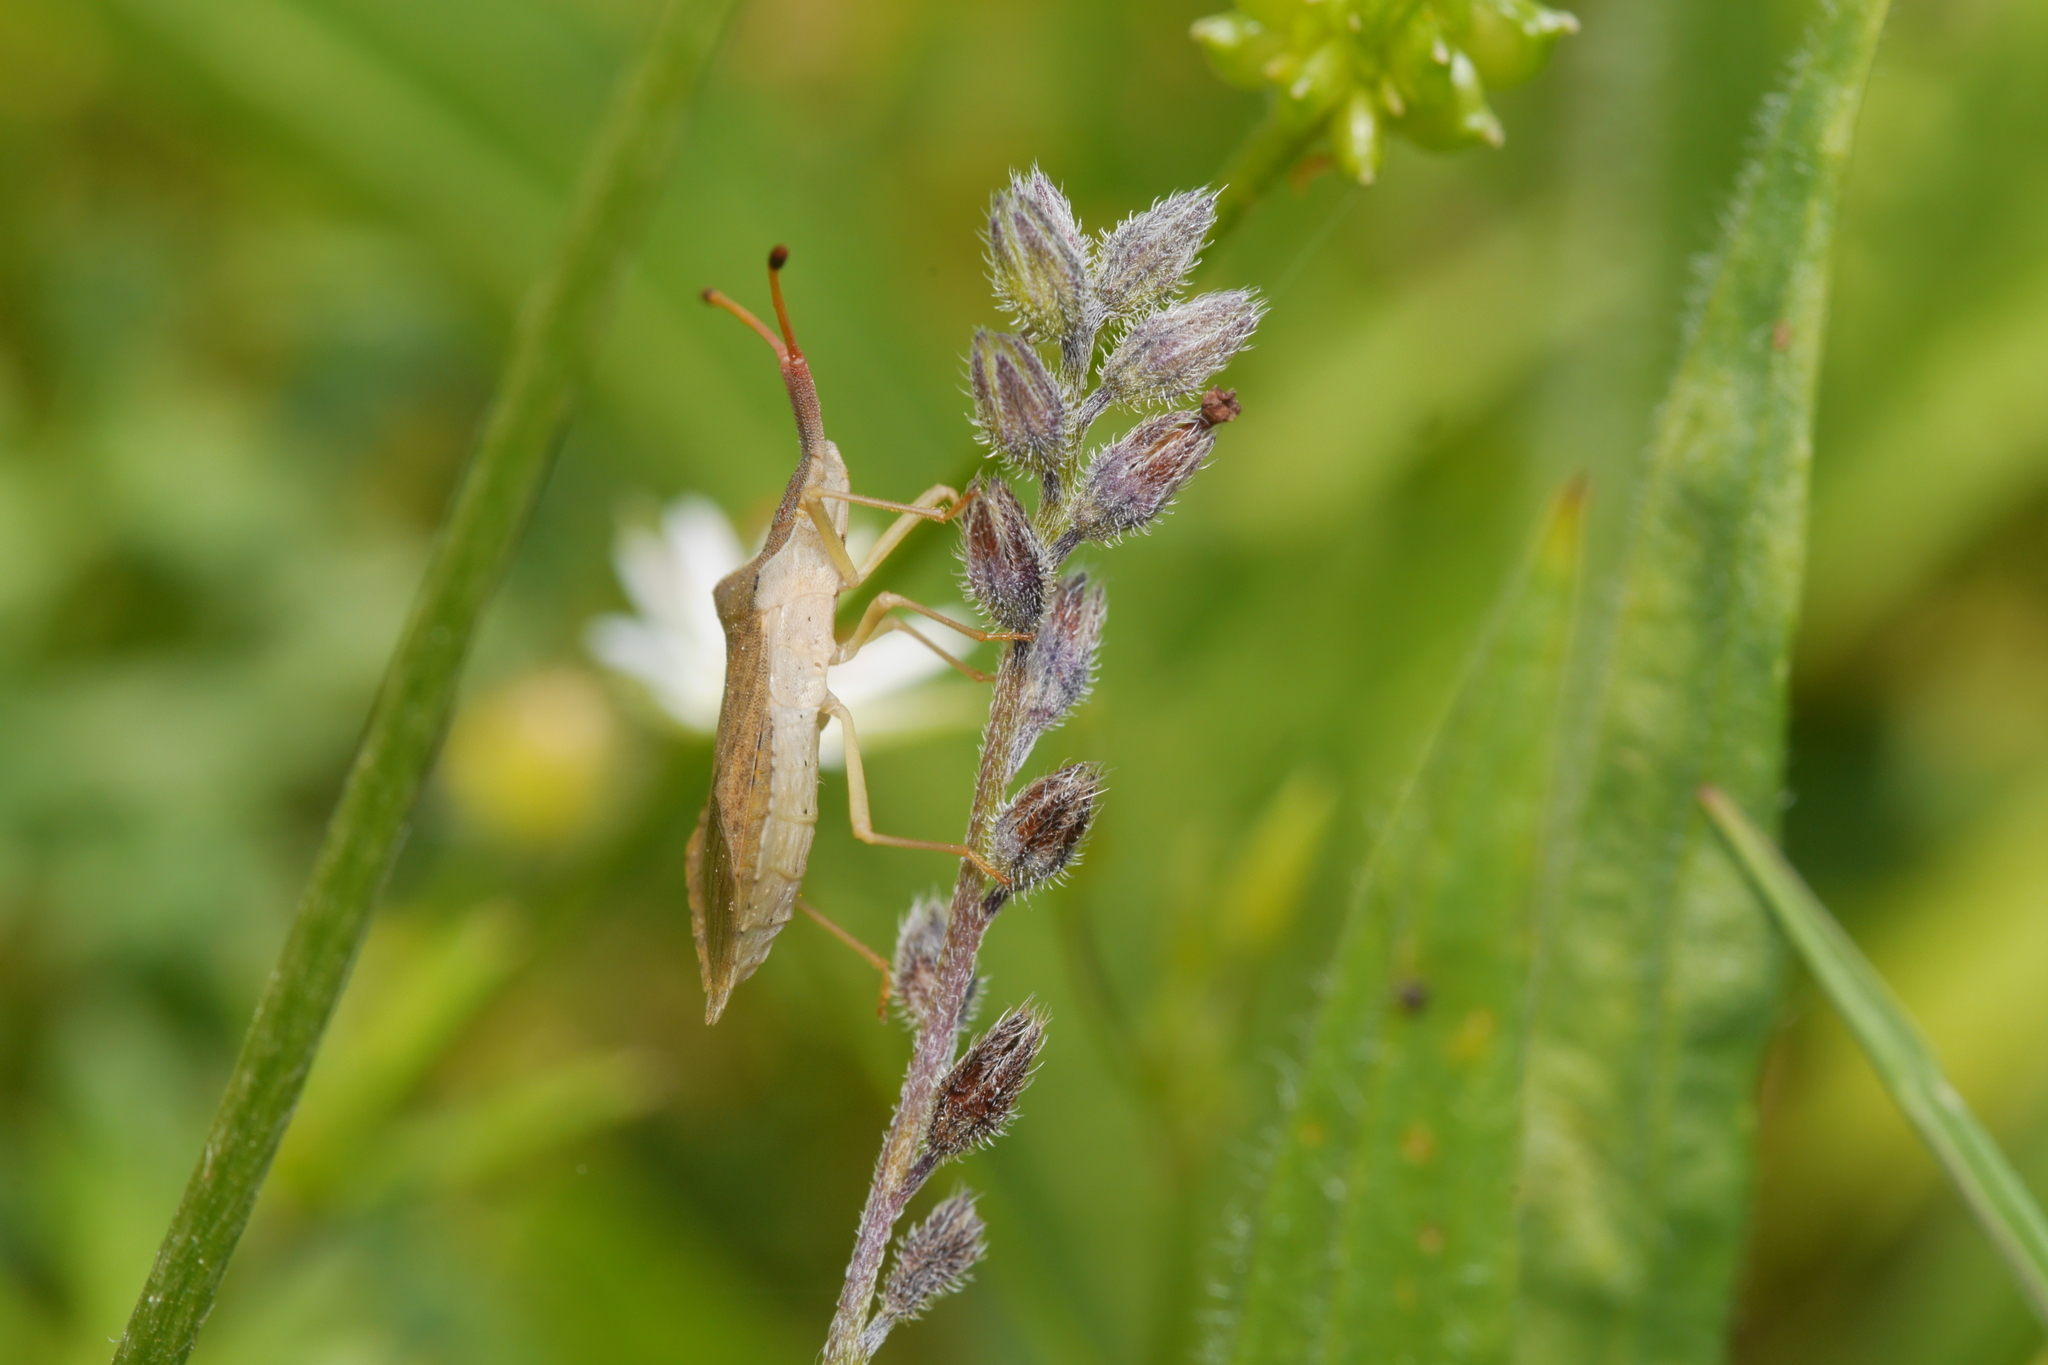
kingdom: Animalia
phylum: Arthropoda
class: Insecta
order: Hemiptera
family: Coreidae
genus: Syromastus
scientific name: Syromastus rhombeus
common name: Rhombic leatherbug
